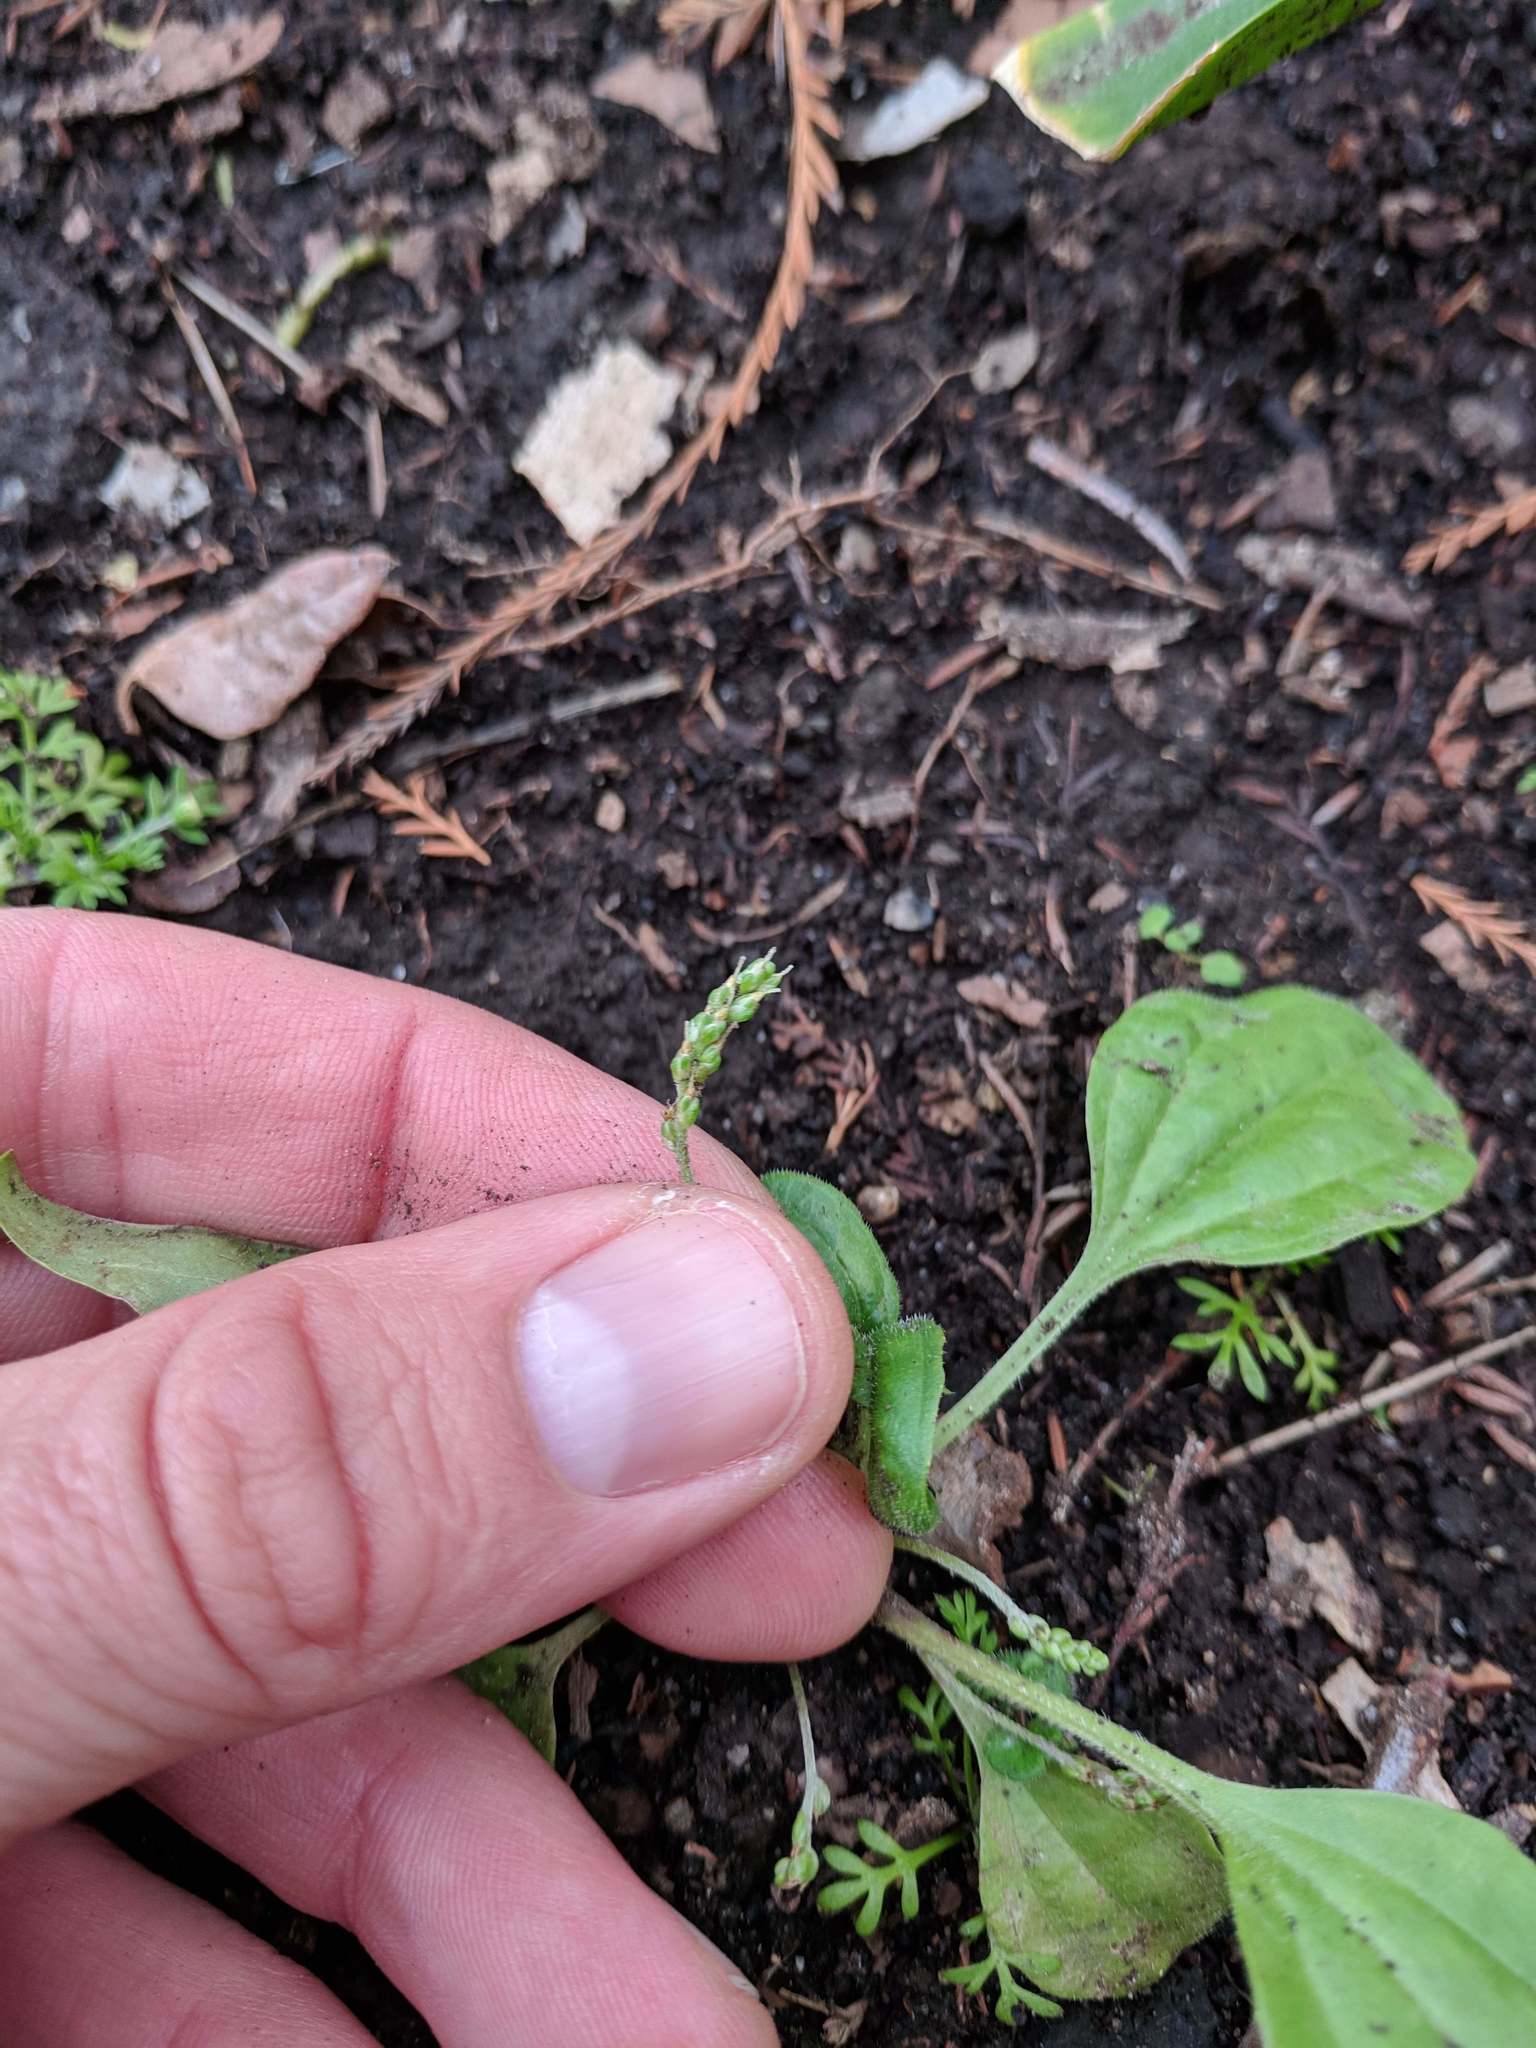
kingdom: Plantae
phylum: Tracheophyta
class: Magnoliopsida
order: Lamiales
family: Plantaginaceae
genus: Plantago
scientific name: Plantago major
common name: Common plantain
